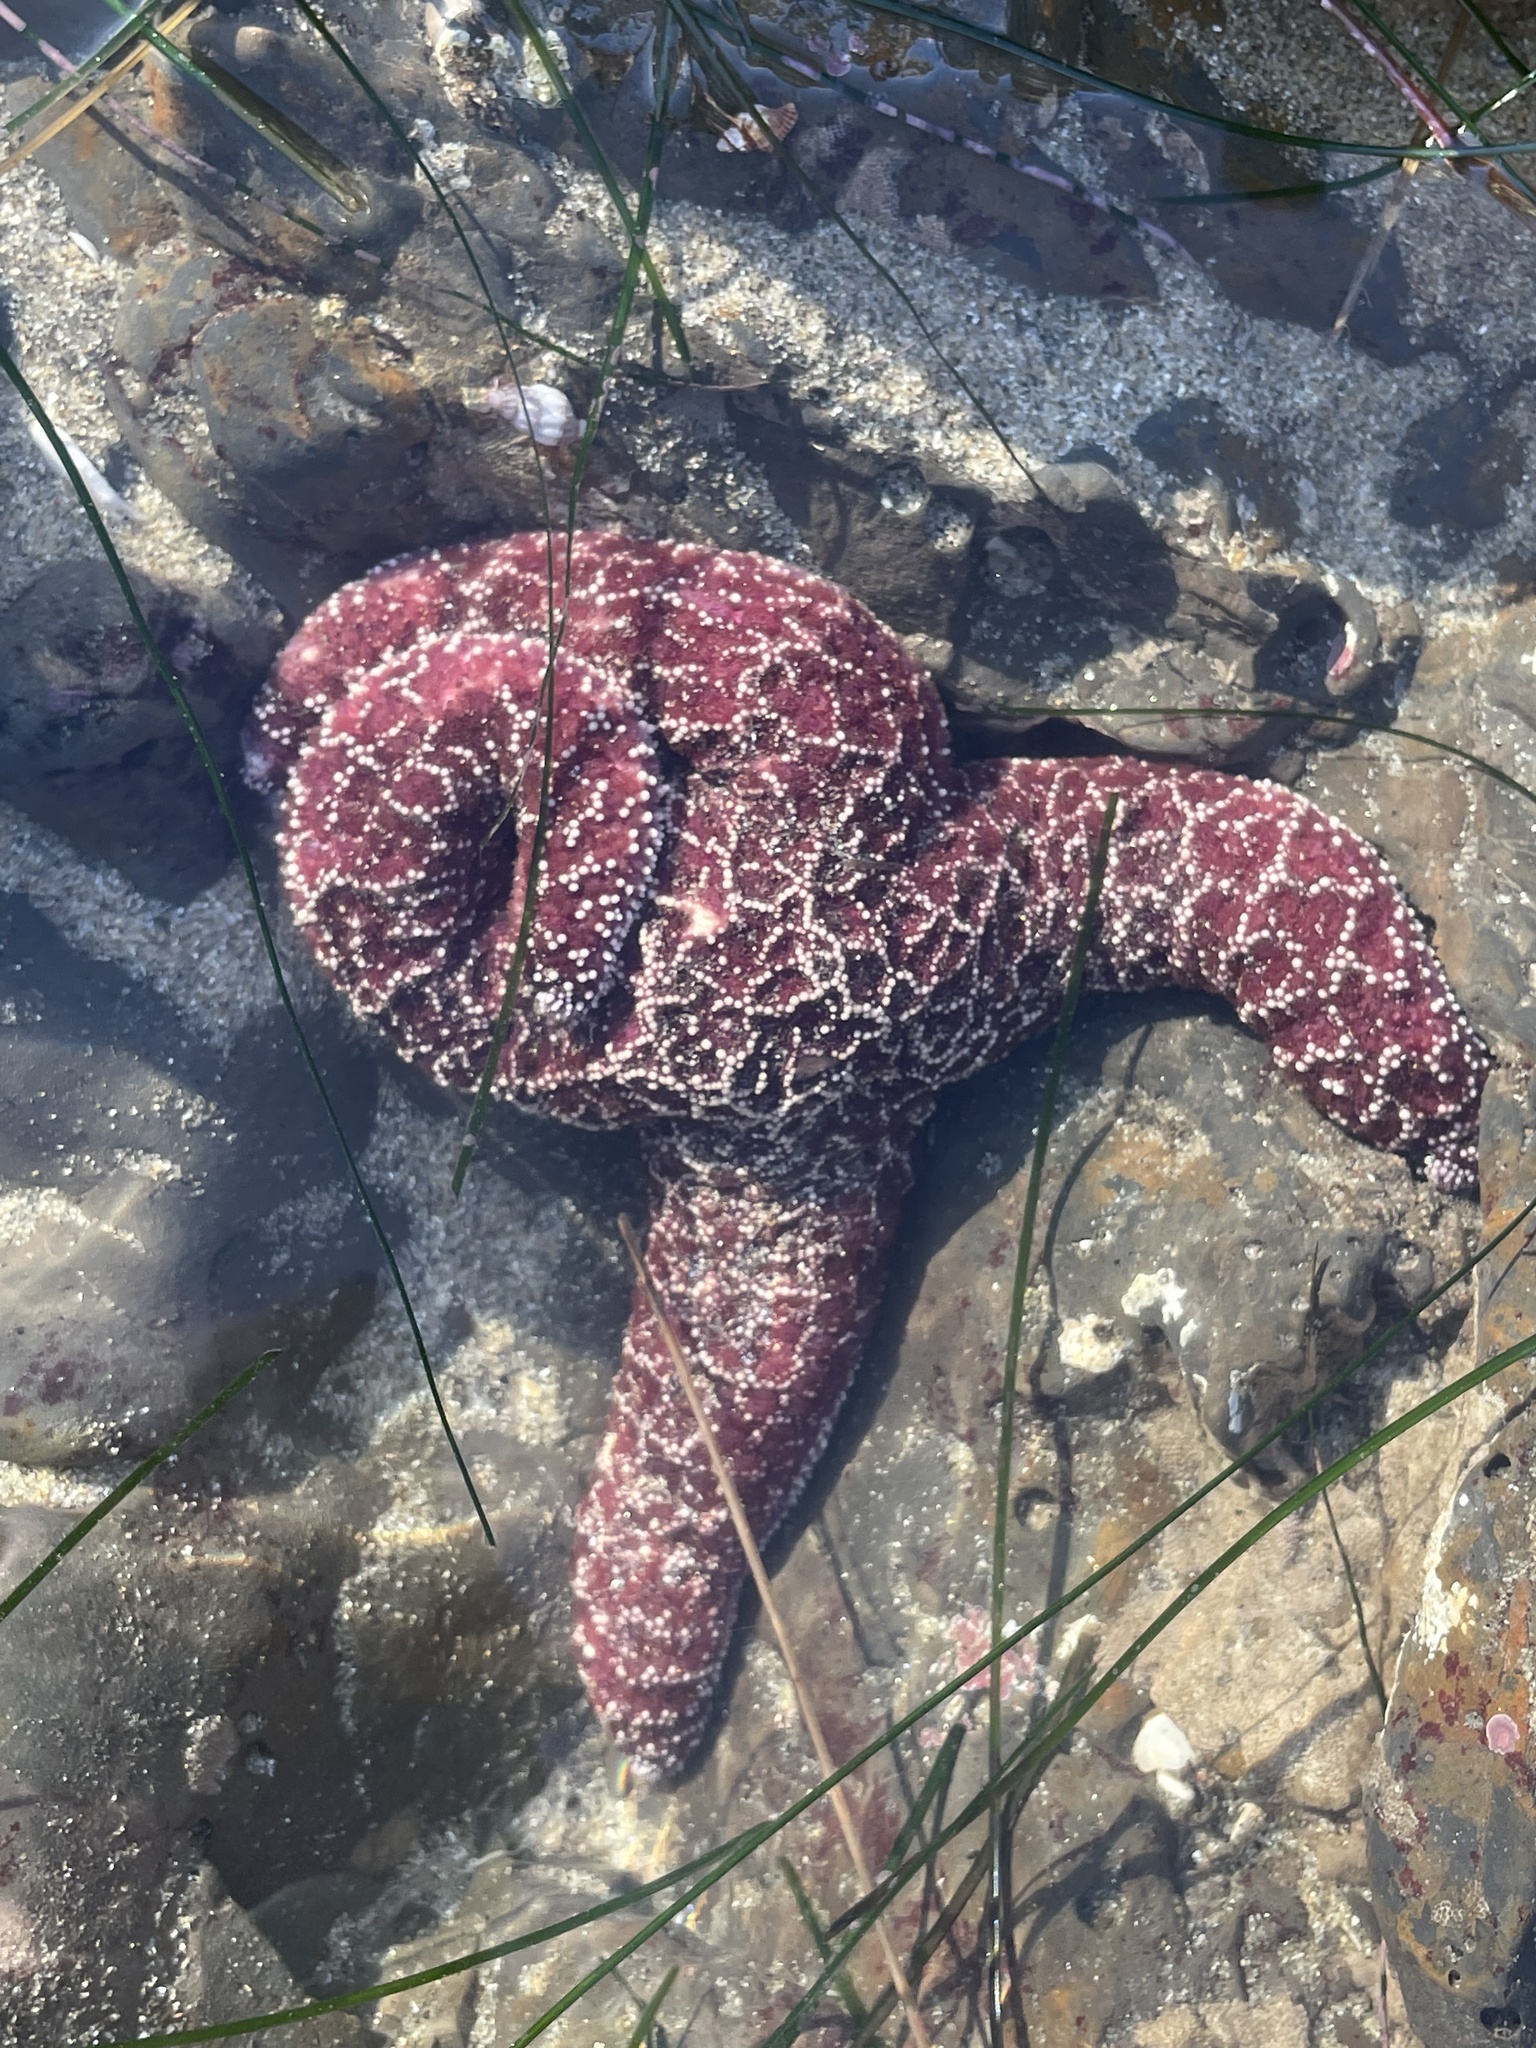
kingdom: Animalia
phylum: Echinodermata
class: Asteroidea
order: Forcipulatida
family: Asteriidae
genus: Pisaster
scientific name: Pisaster ochraceus
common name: Ochre stars
